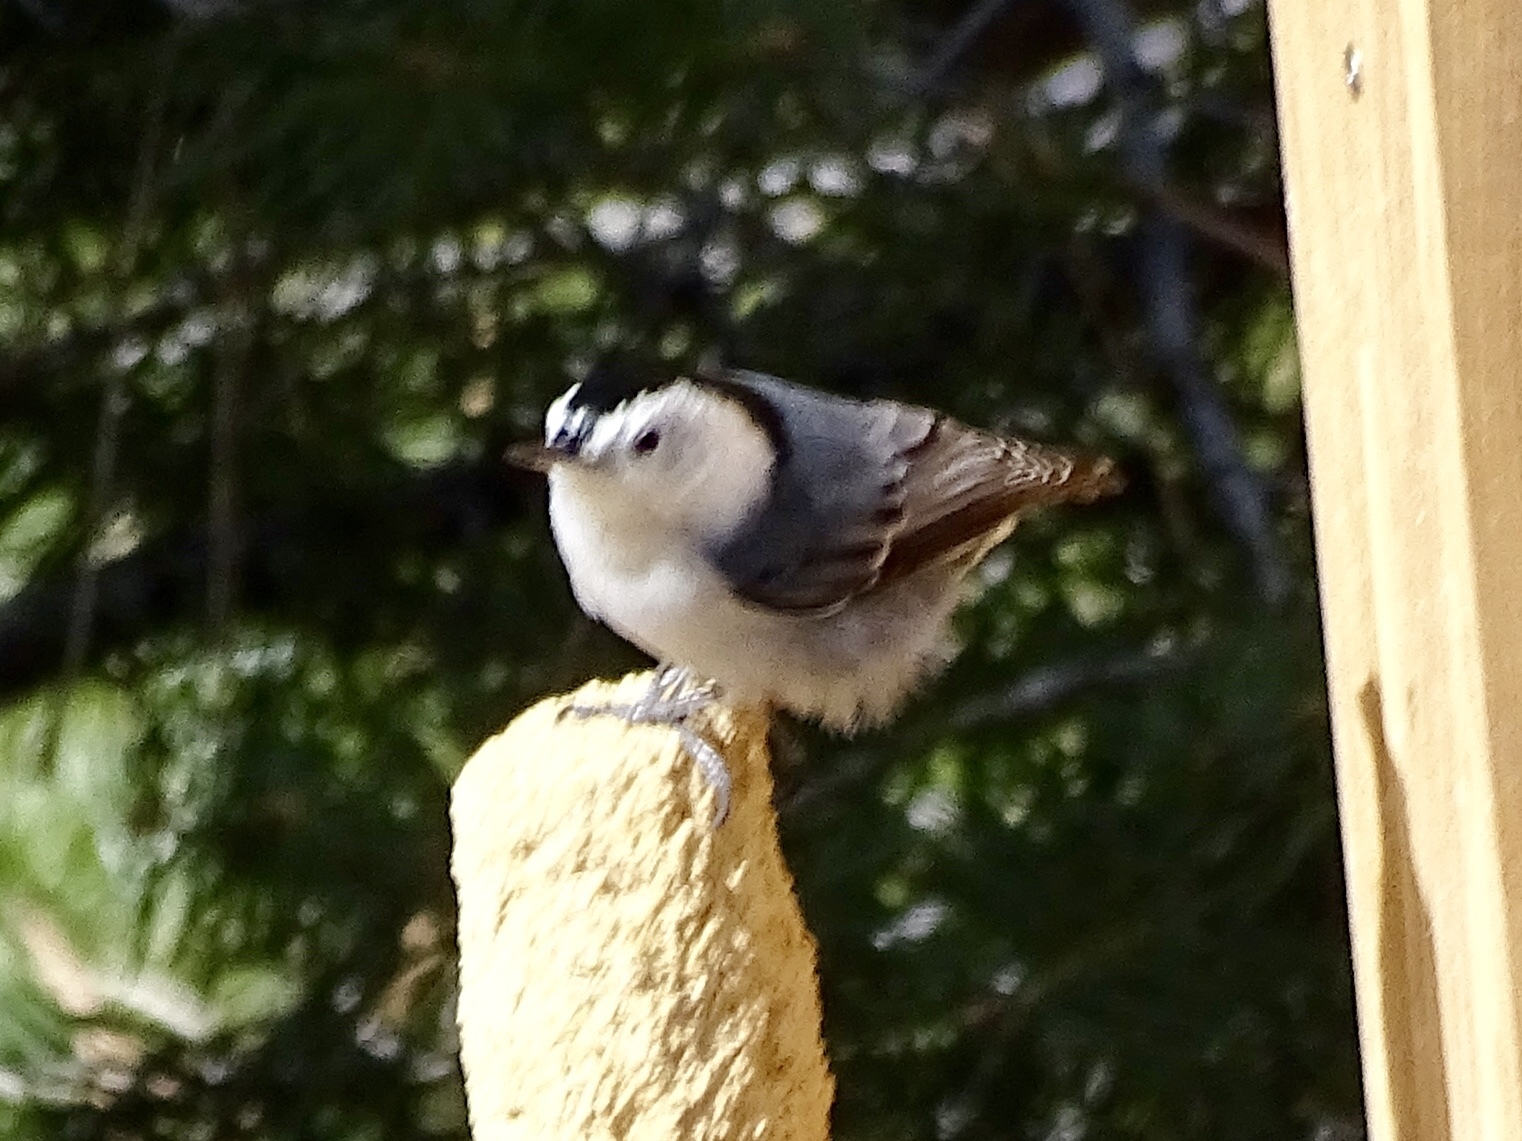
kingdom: Animalia
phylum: Chordata
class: Aves
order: Passeriformes
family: Sittidae
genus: Sitta
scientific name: Sitta carolinensis
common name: White-breasted nuthatch
